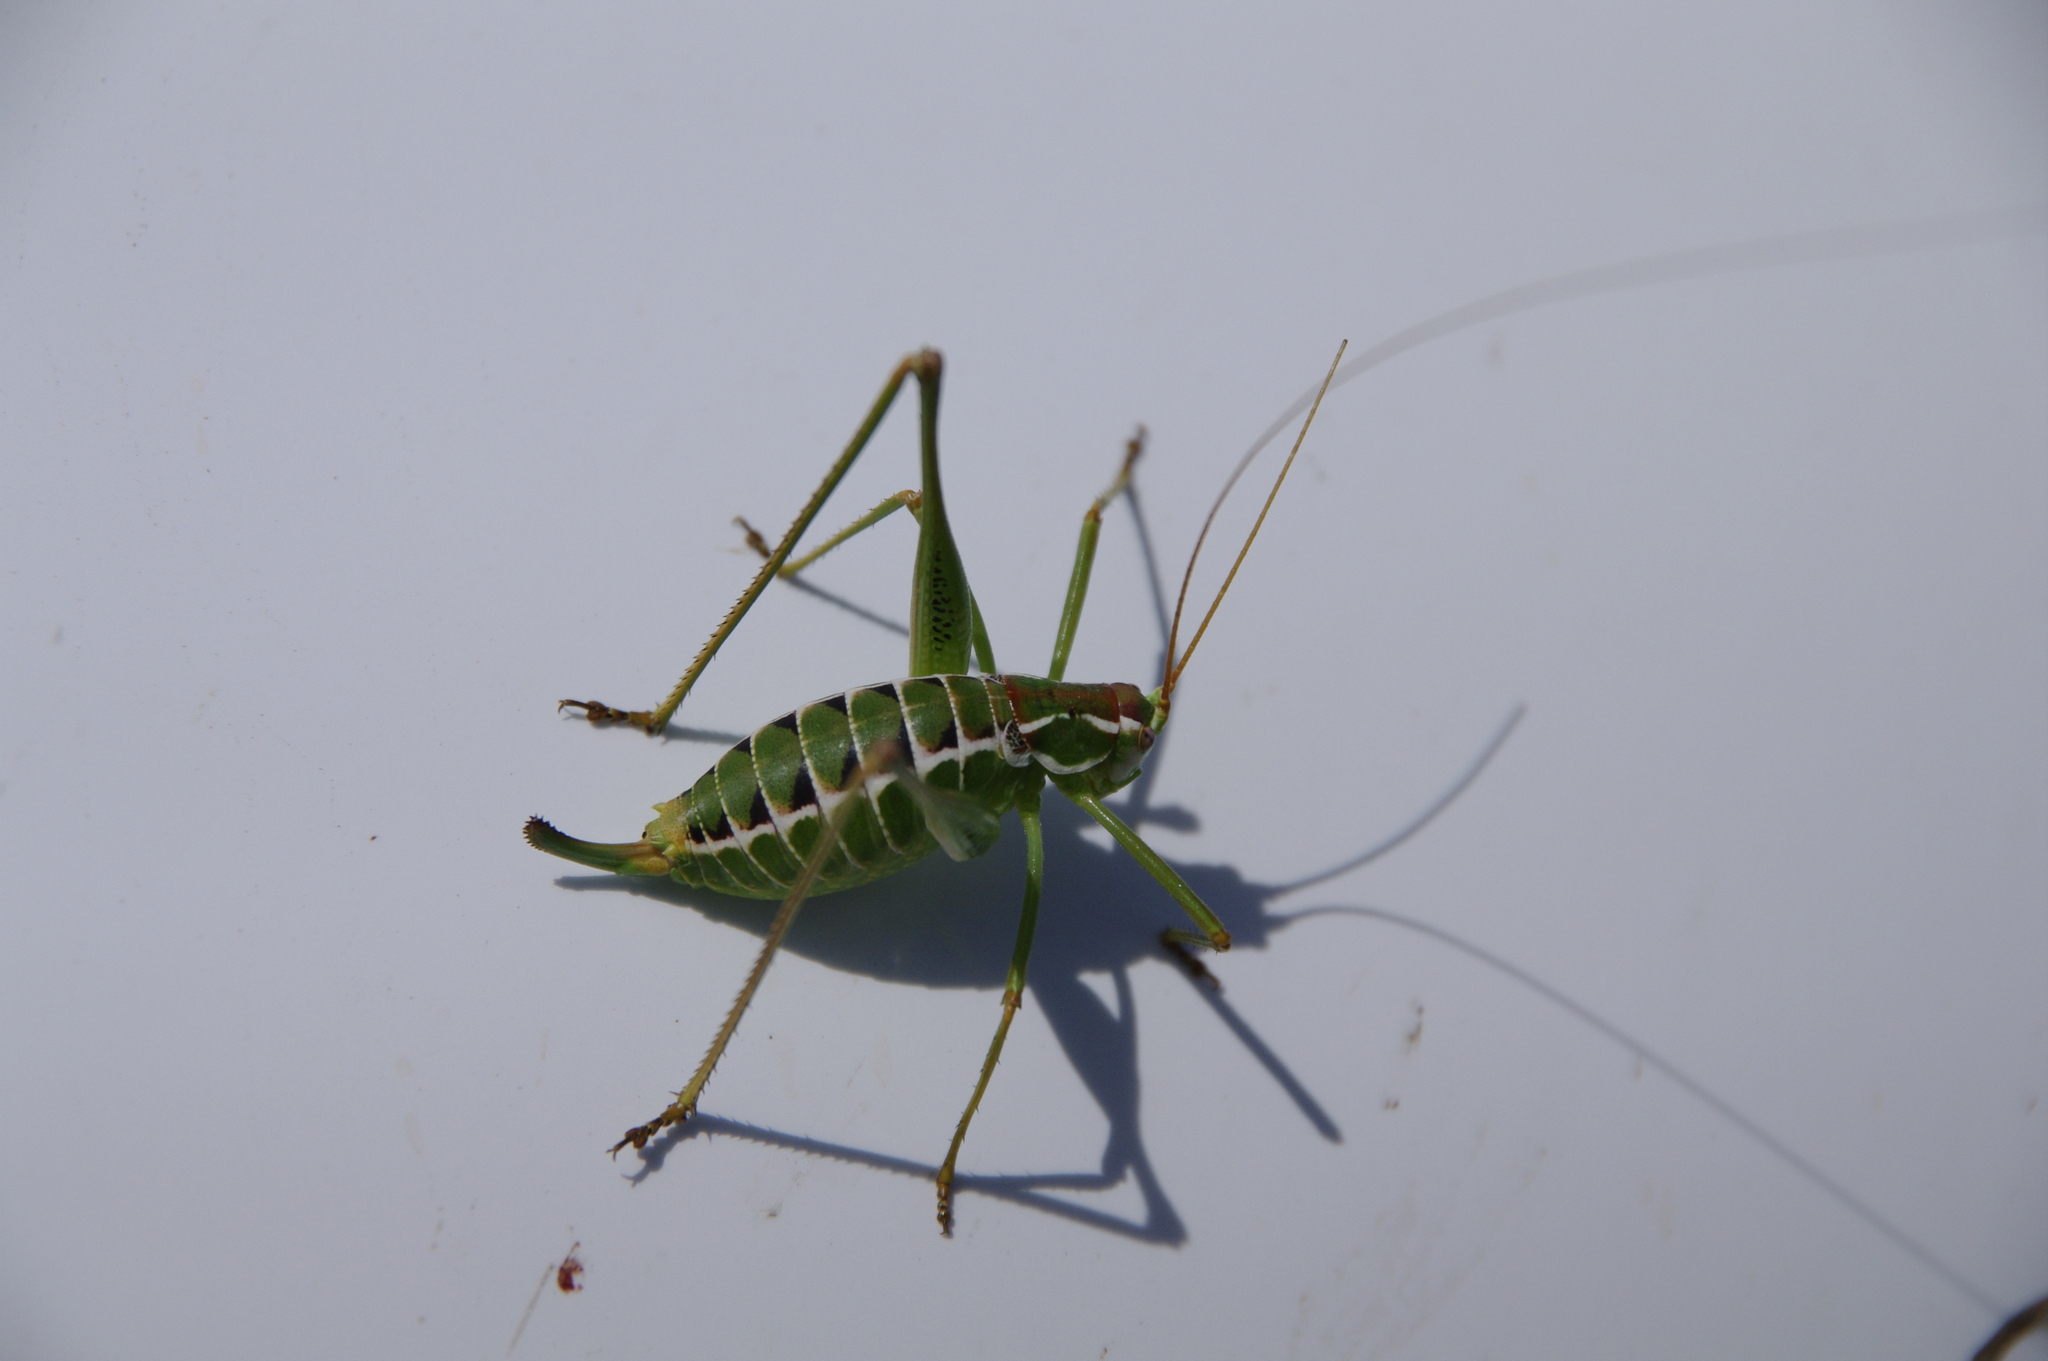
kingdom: Animalia
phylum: Arthropoda
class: Insecta
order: Orthoptera
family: Tettigoniidae
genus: Obolopteryx
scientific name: Obolopteryx oreoeca
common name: Mountain-dwelling short-winged katydid
